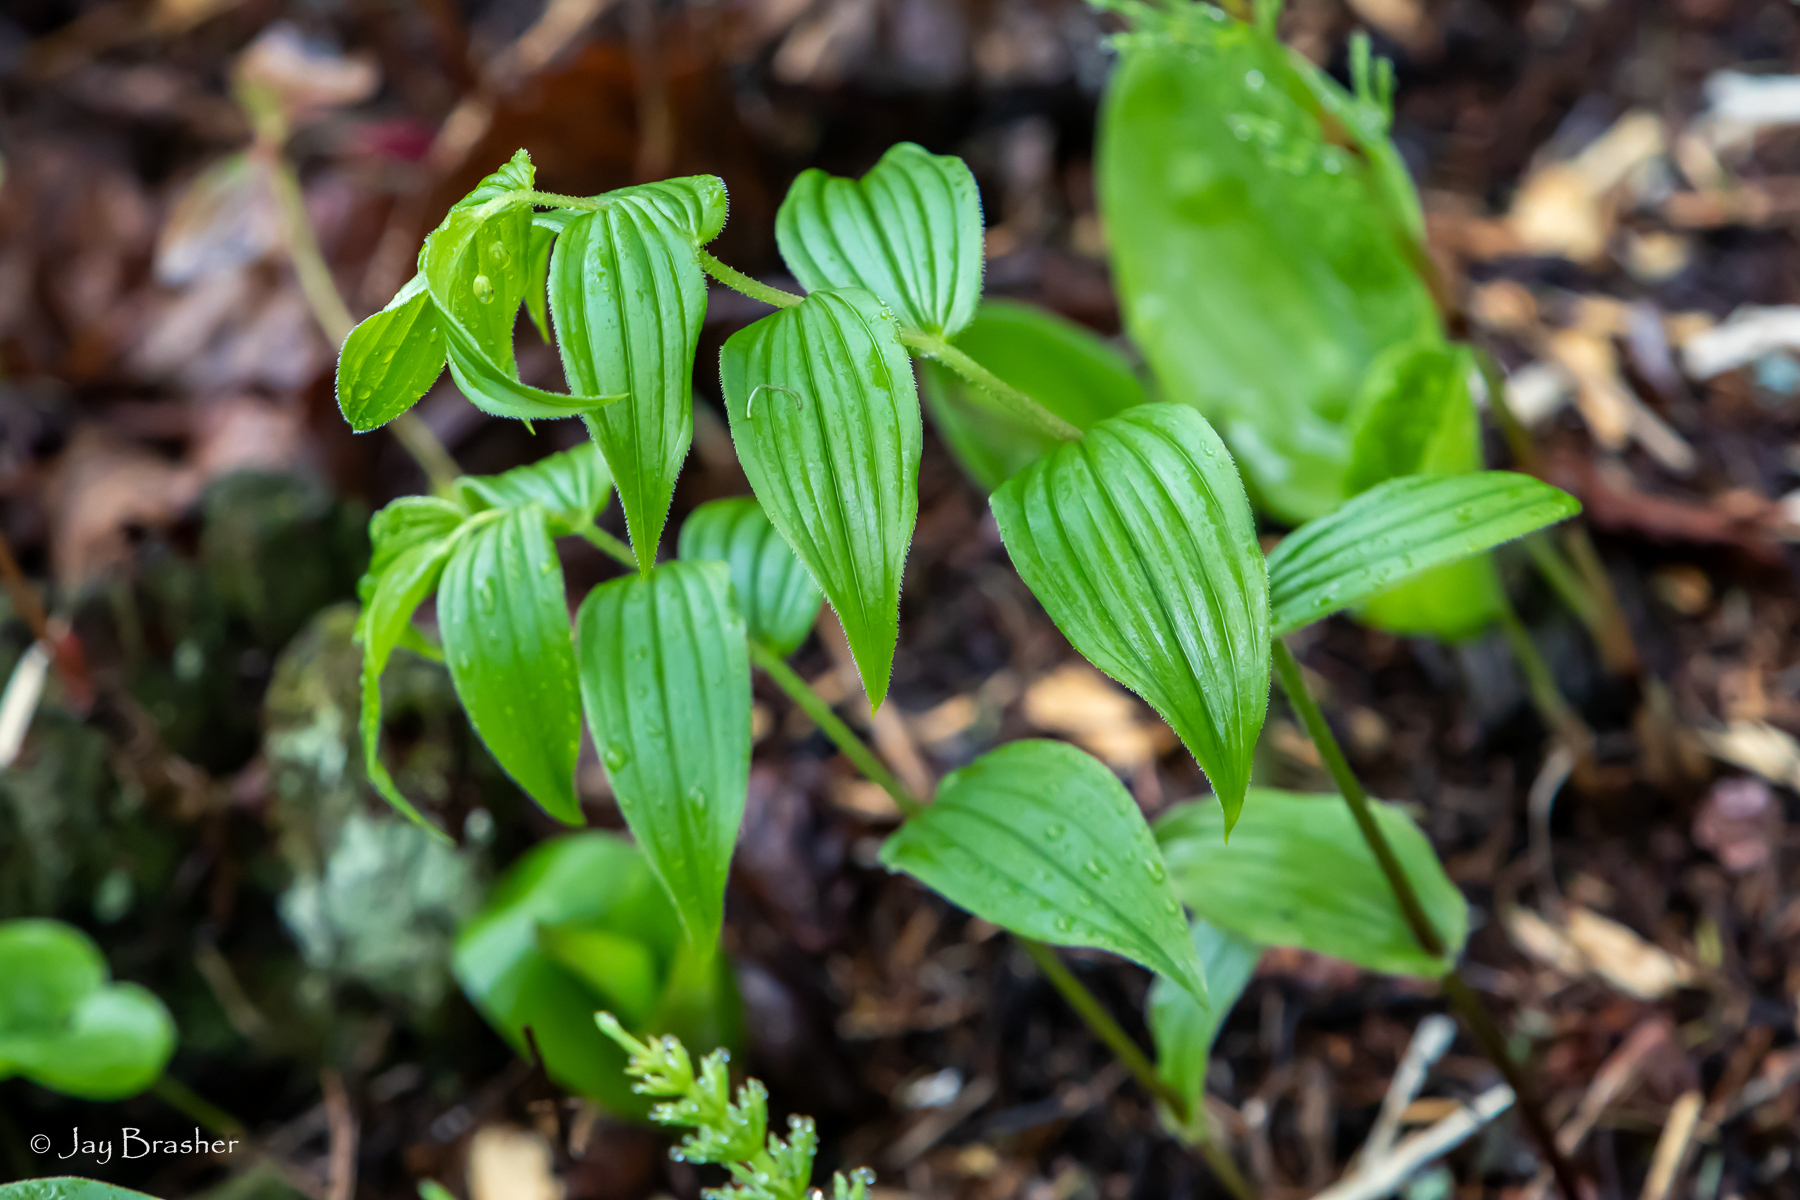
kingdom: Plantae
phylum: Tracheophyta
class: Liliopsida
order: Liliales
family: Liliaceae
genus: Streptopus
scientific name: Streptopus lanceolatus
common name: Rose mandarin
